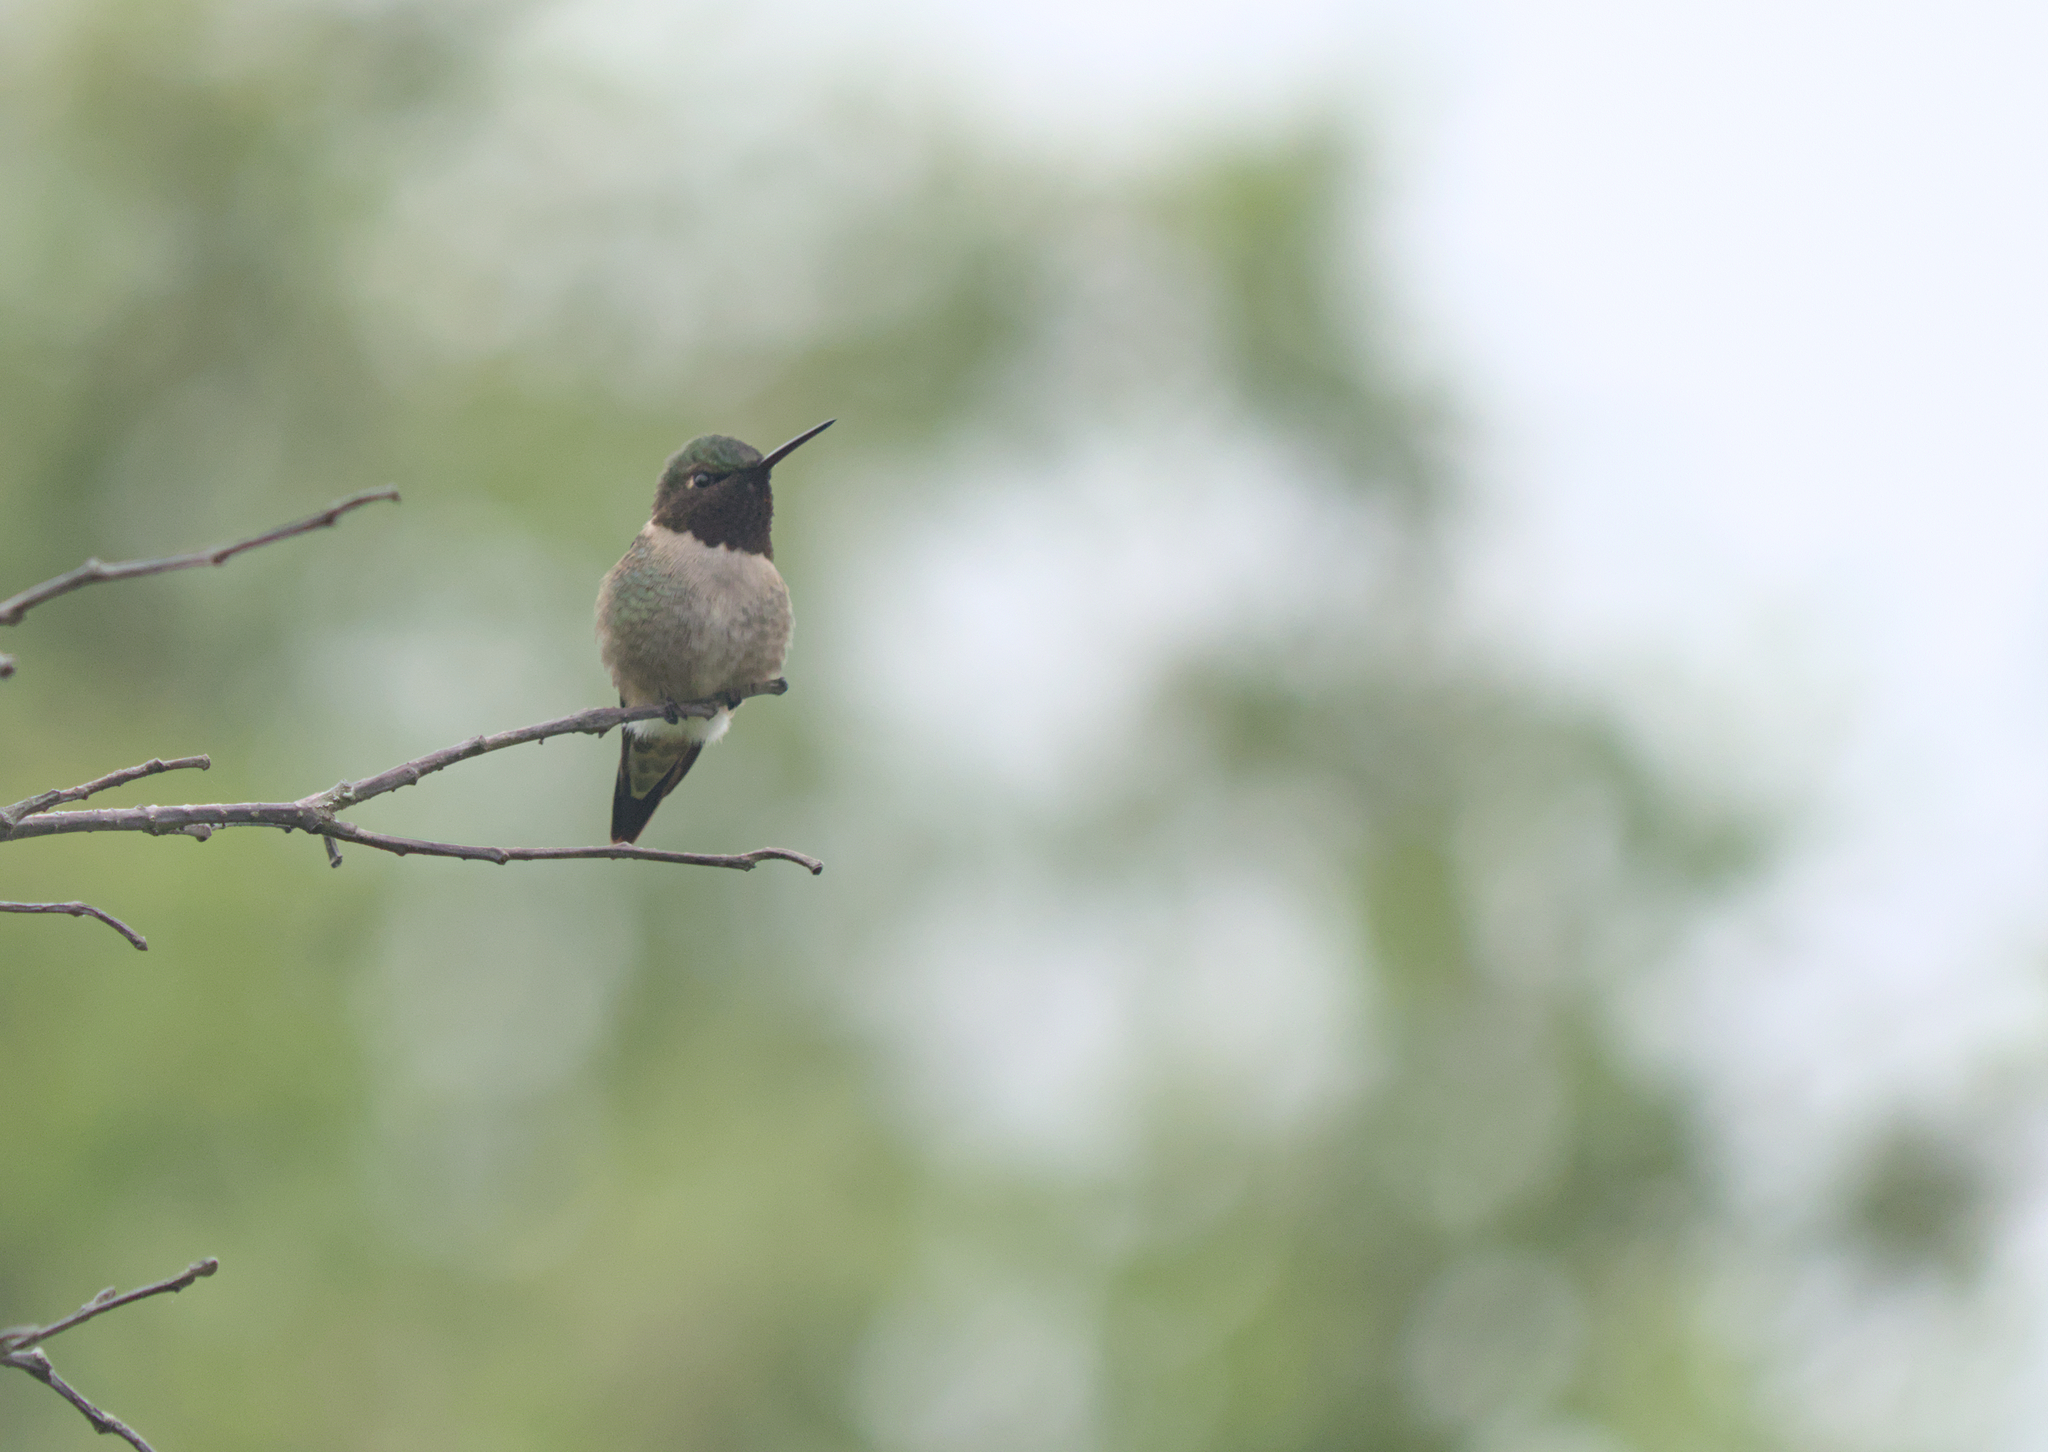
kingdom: Animalia
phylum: Chordata
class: Aves
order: Apodiformes
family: Trochilidae
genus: Archilochus
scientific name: Archilochus colubris
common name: Ruby-throated hummingbird
